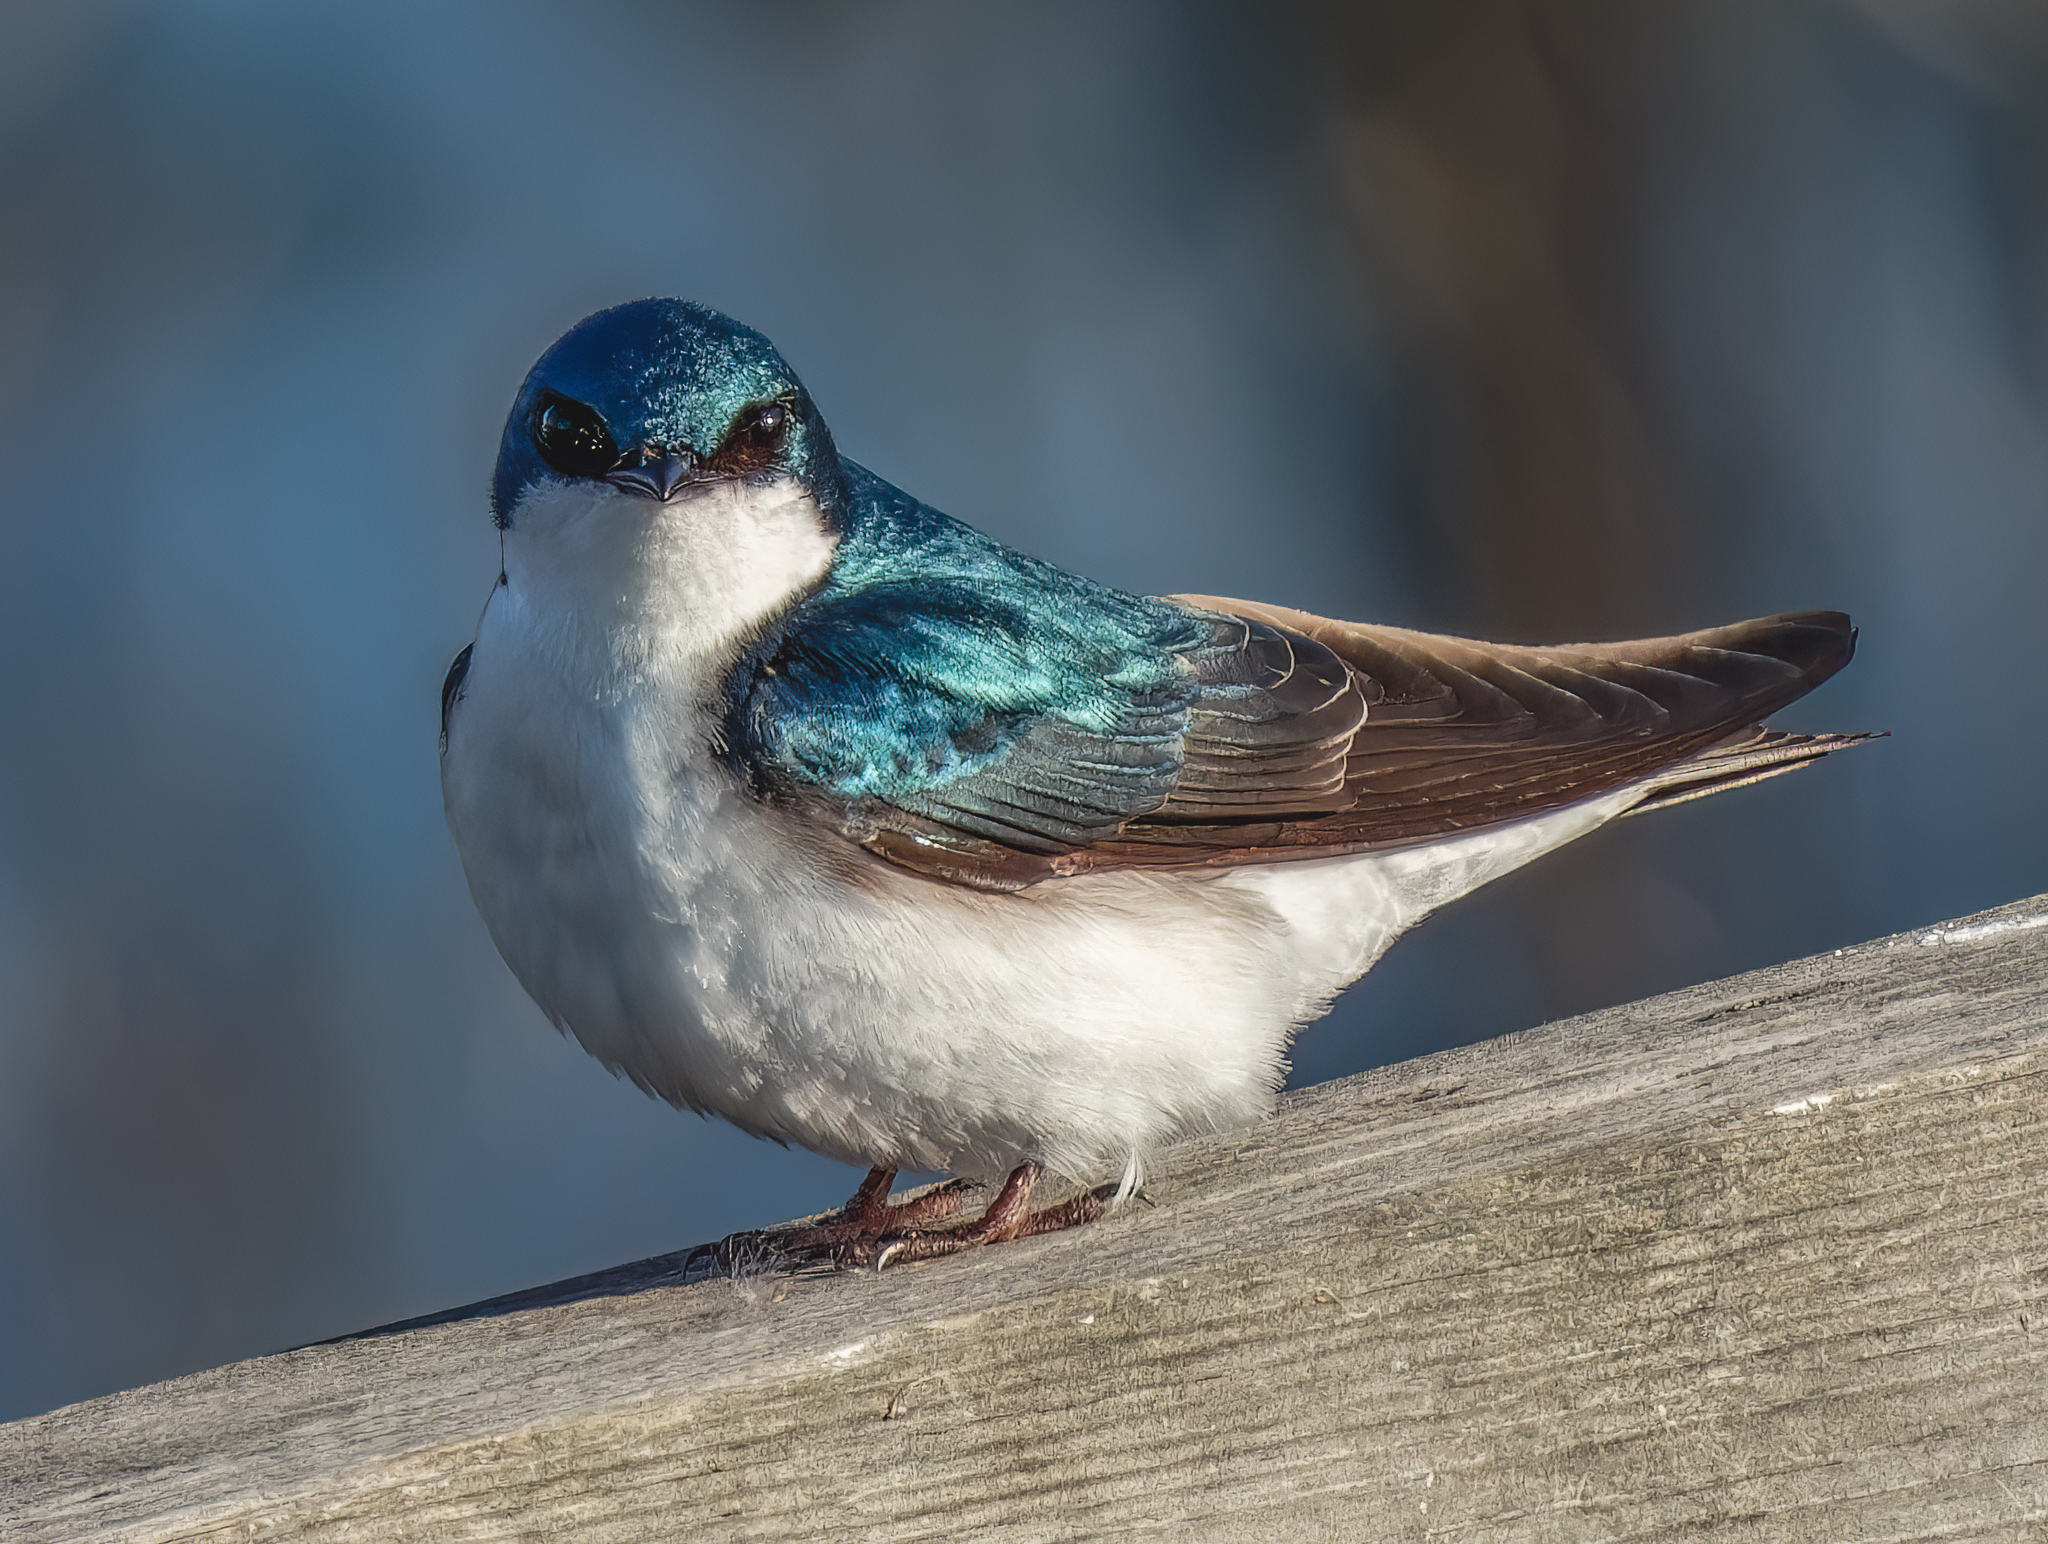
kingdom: Animalia
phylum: Chordata
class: Aves
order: Passeriformes
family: Hirundinidae
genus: Tachycineta
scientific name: Tachycineta bicolor
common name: Tree swallow
